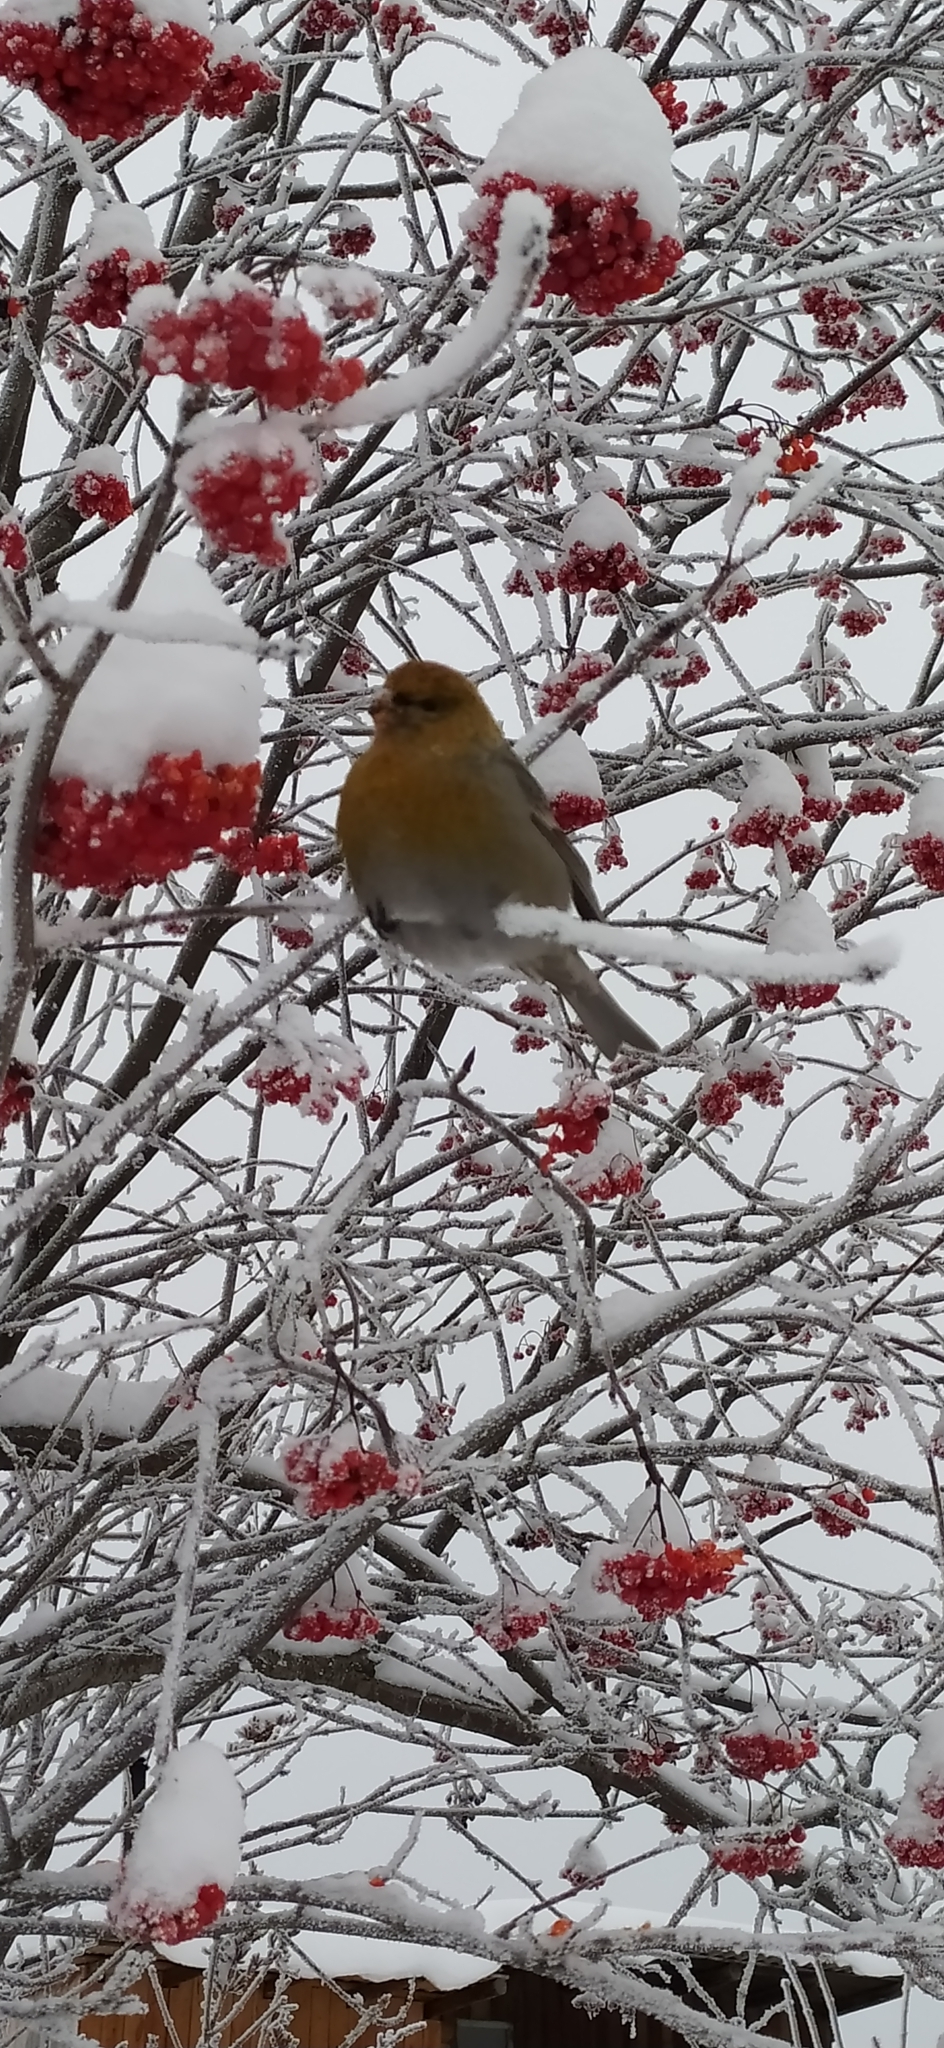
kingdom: Animalia
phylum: Chordata
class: Aves
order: Passeriformes
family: Fringillidae
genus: Pinicola
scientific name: Pinicola enucleator
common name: Pine grosbeak
